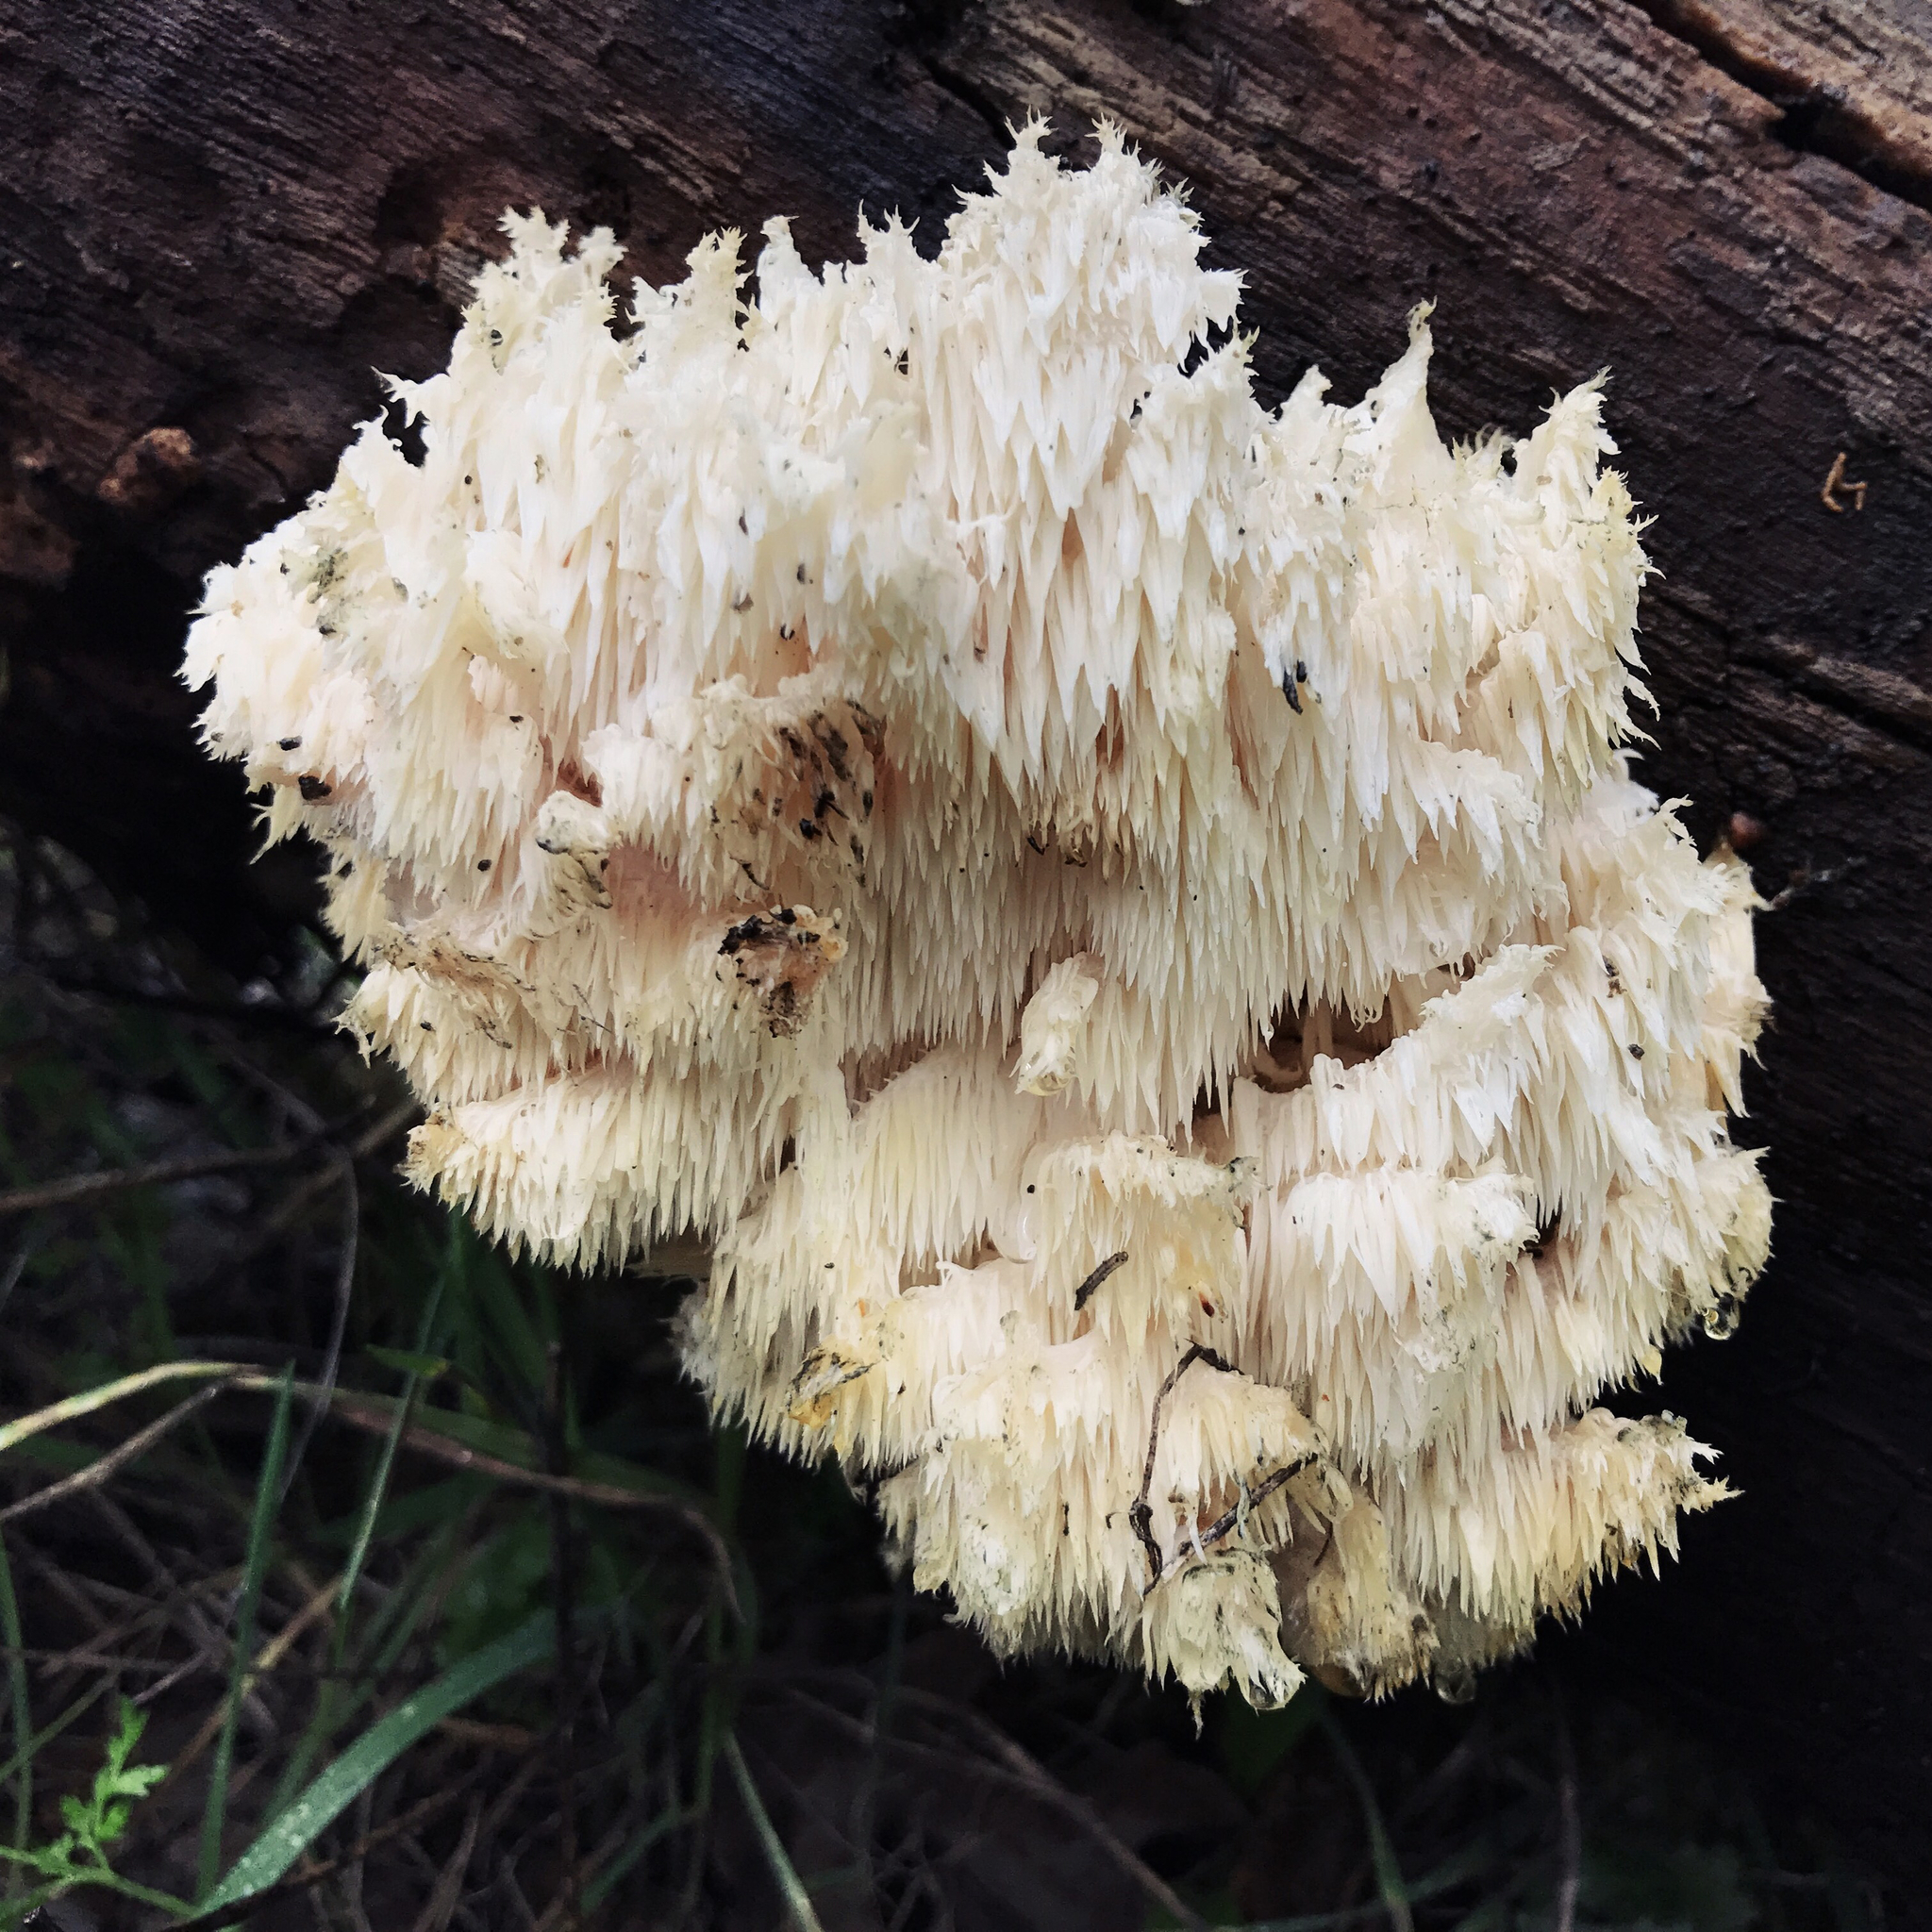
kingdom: Fungi
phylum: Basidiomycota
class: Agaricomycetes
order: Russulales
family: Hericiaceae
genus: Hericium
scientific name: Hericium coralloides
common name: Coral tooth
